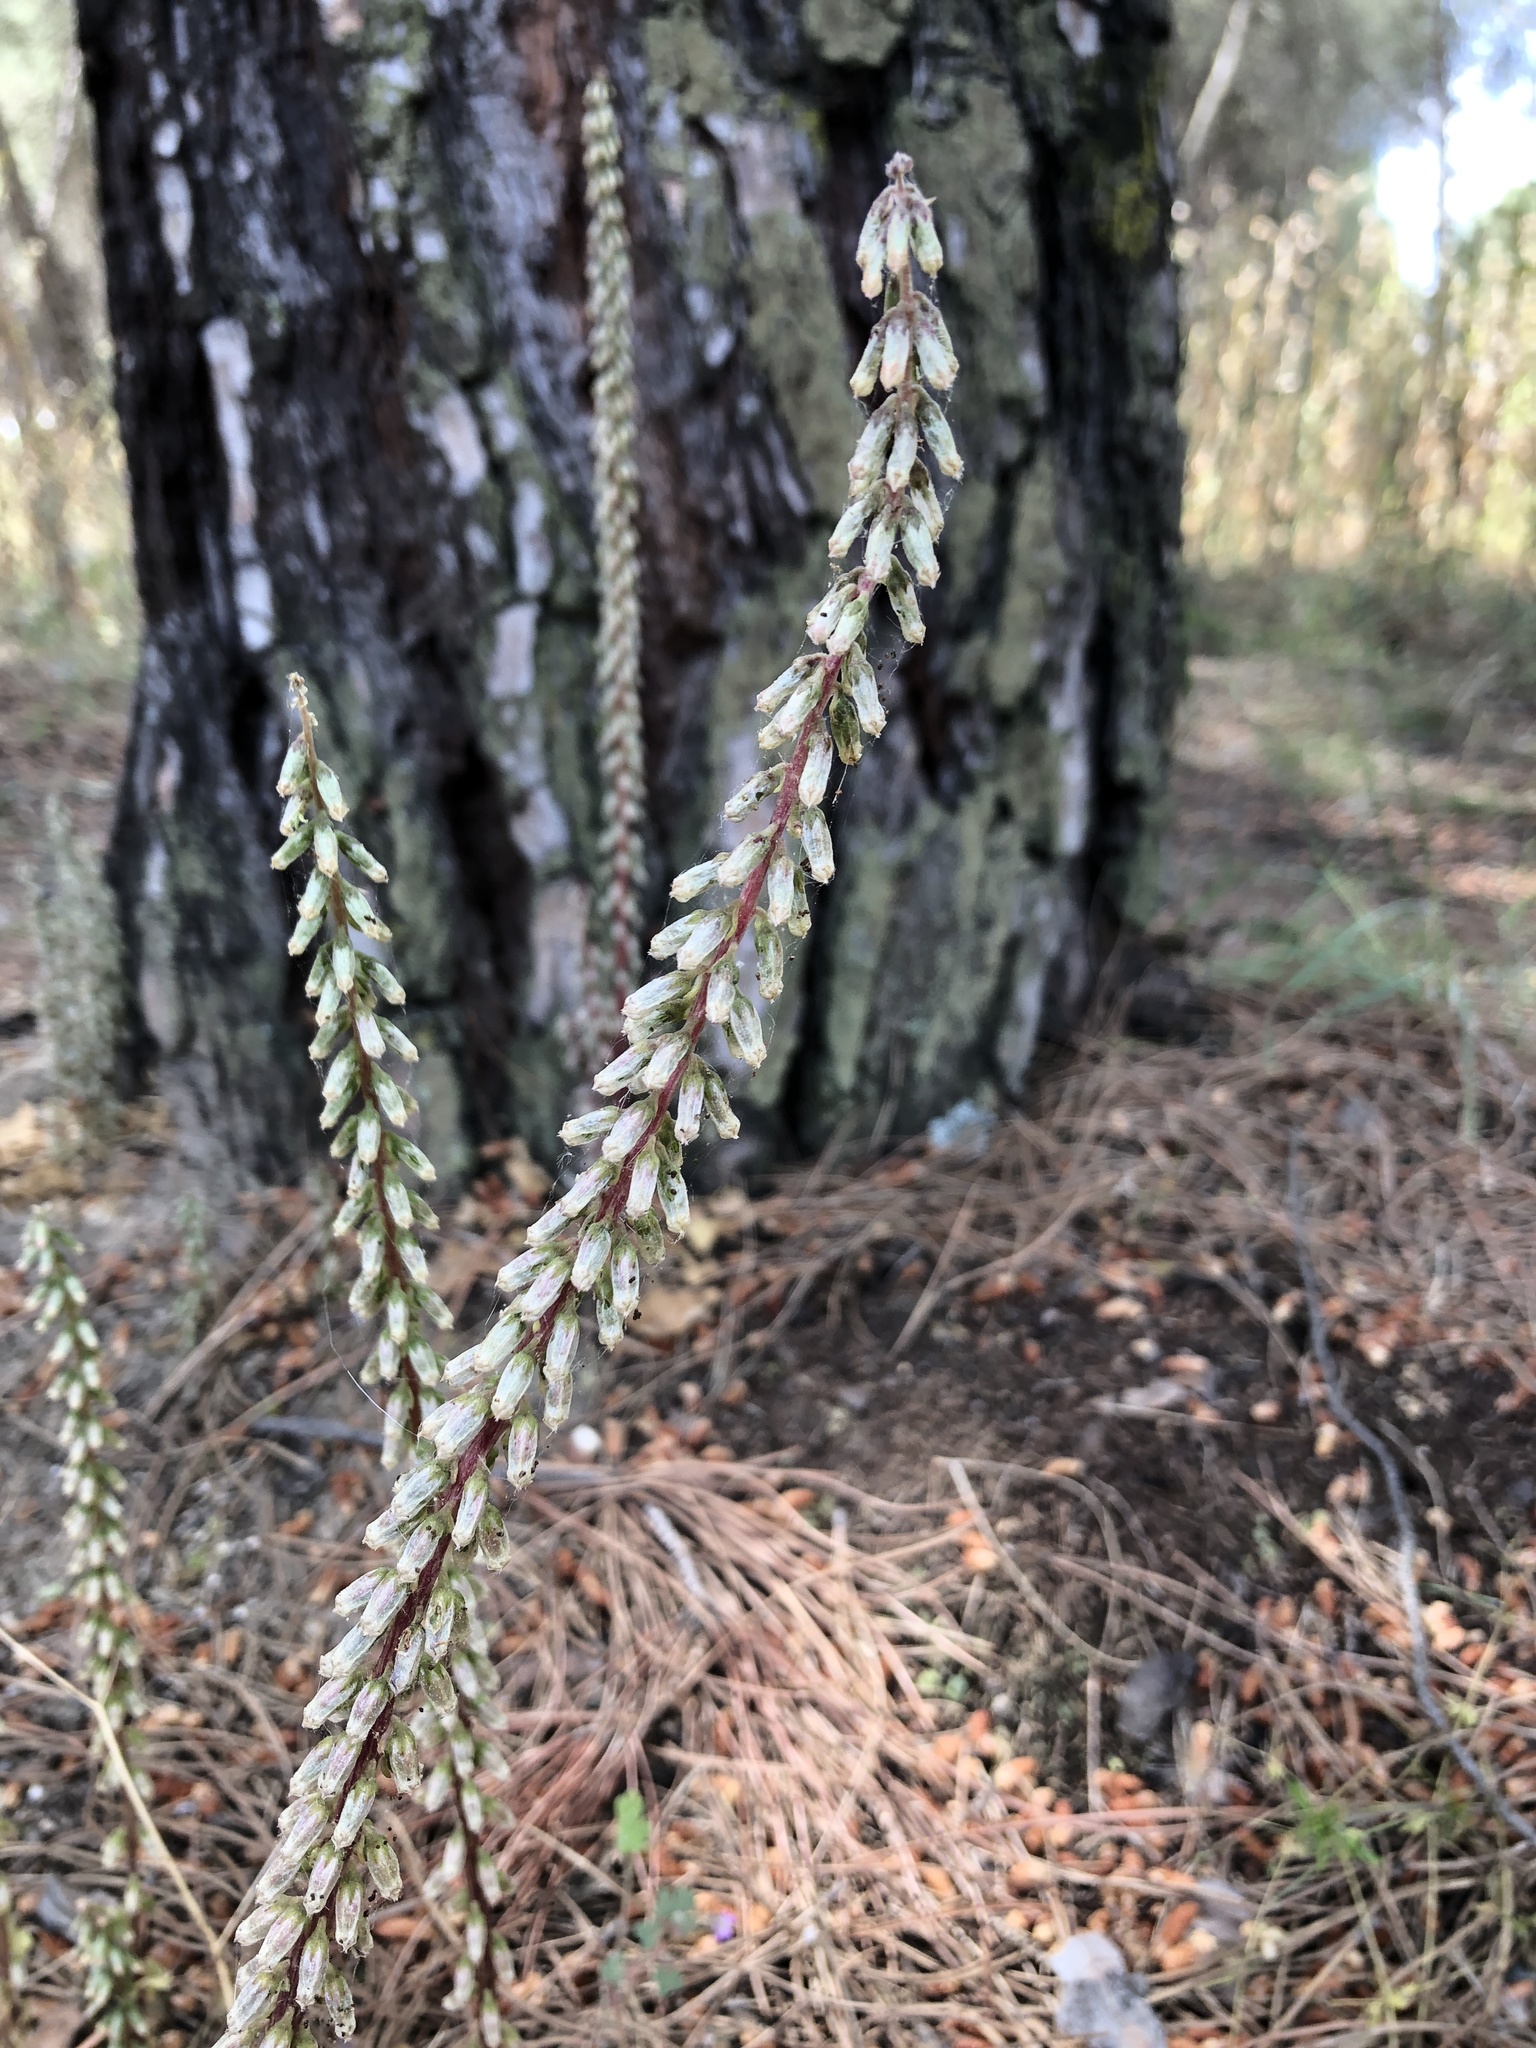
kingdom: Plantae
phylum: Tracheophyta
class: Magnoliopsida
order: Saxifragales
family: Crassulaceae
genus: Umbilicus
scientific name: Umbilicus rupestris
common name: Navelwort
